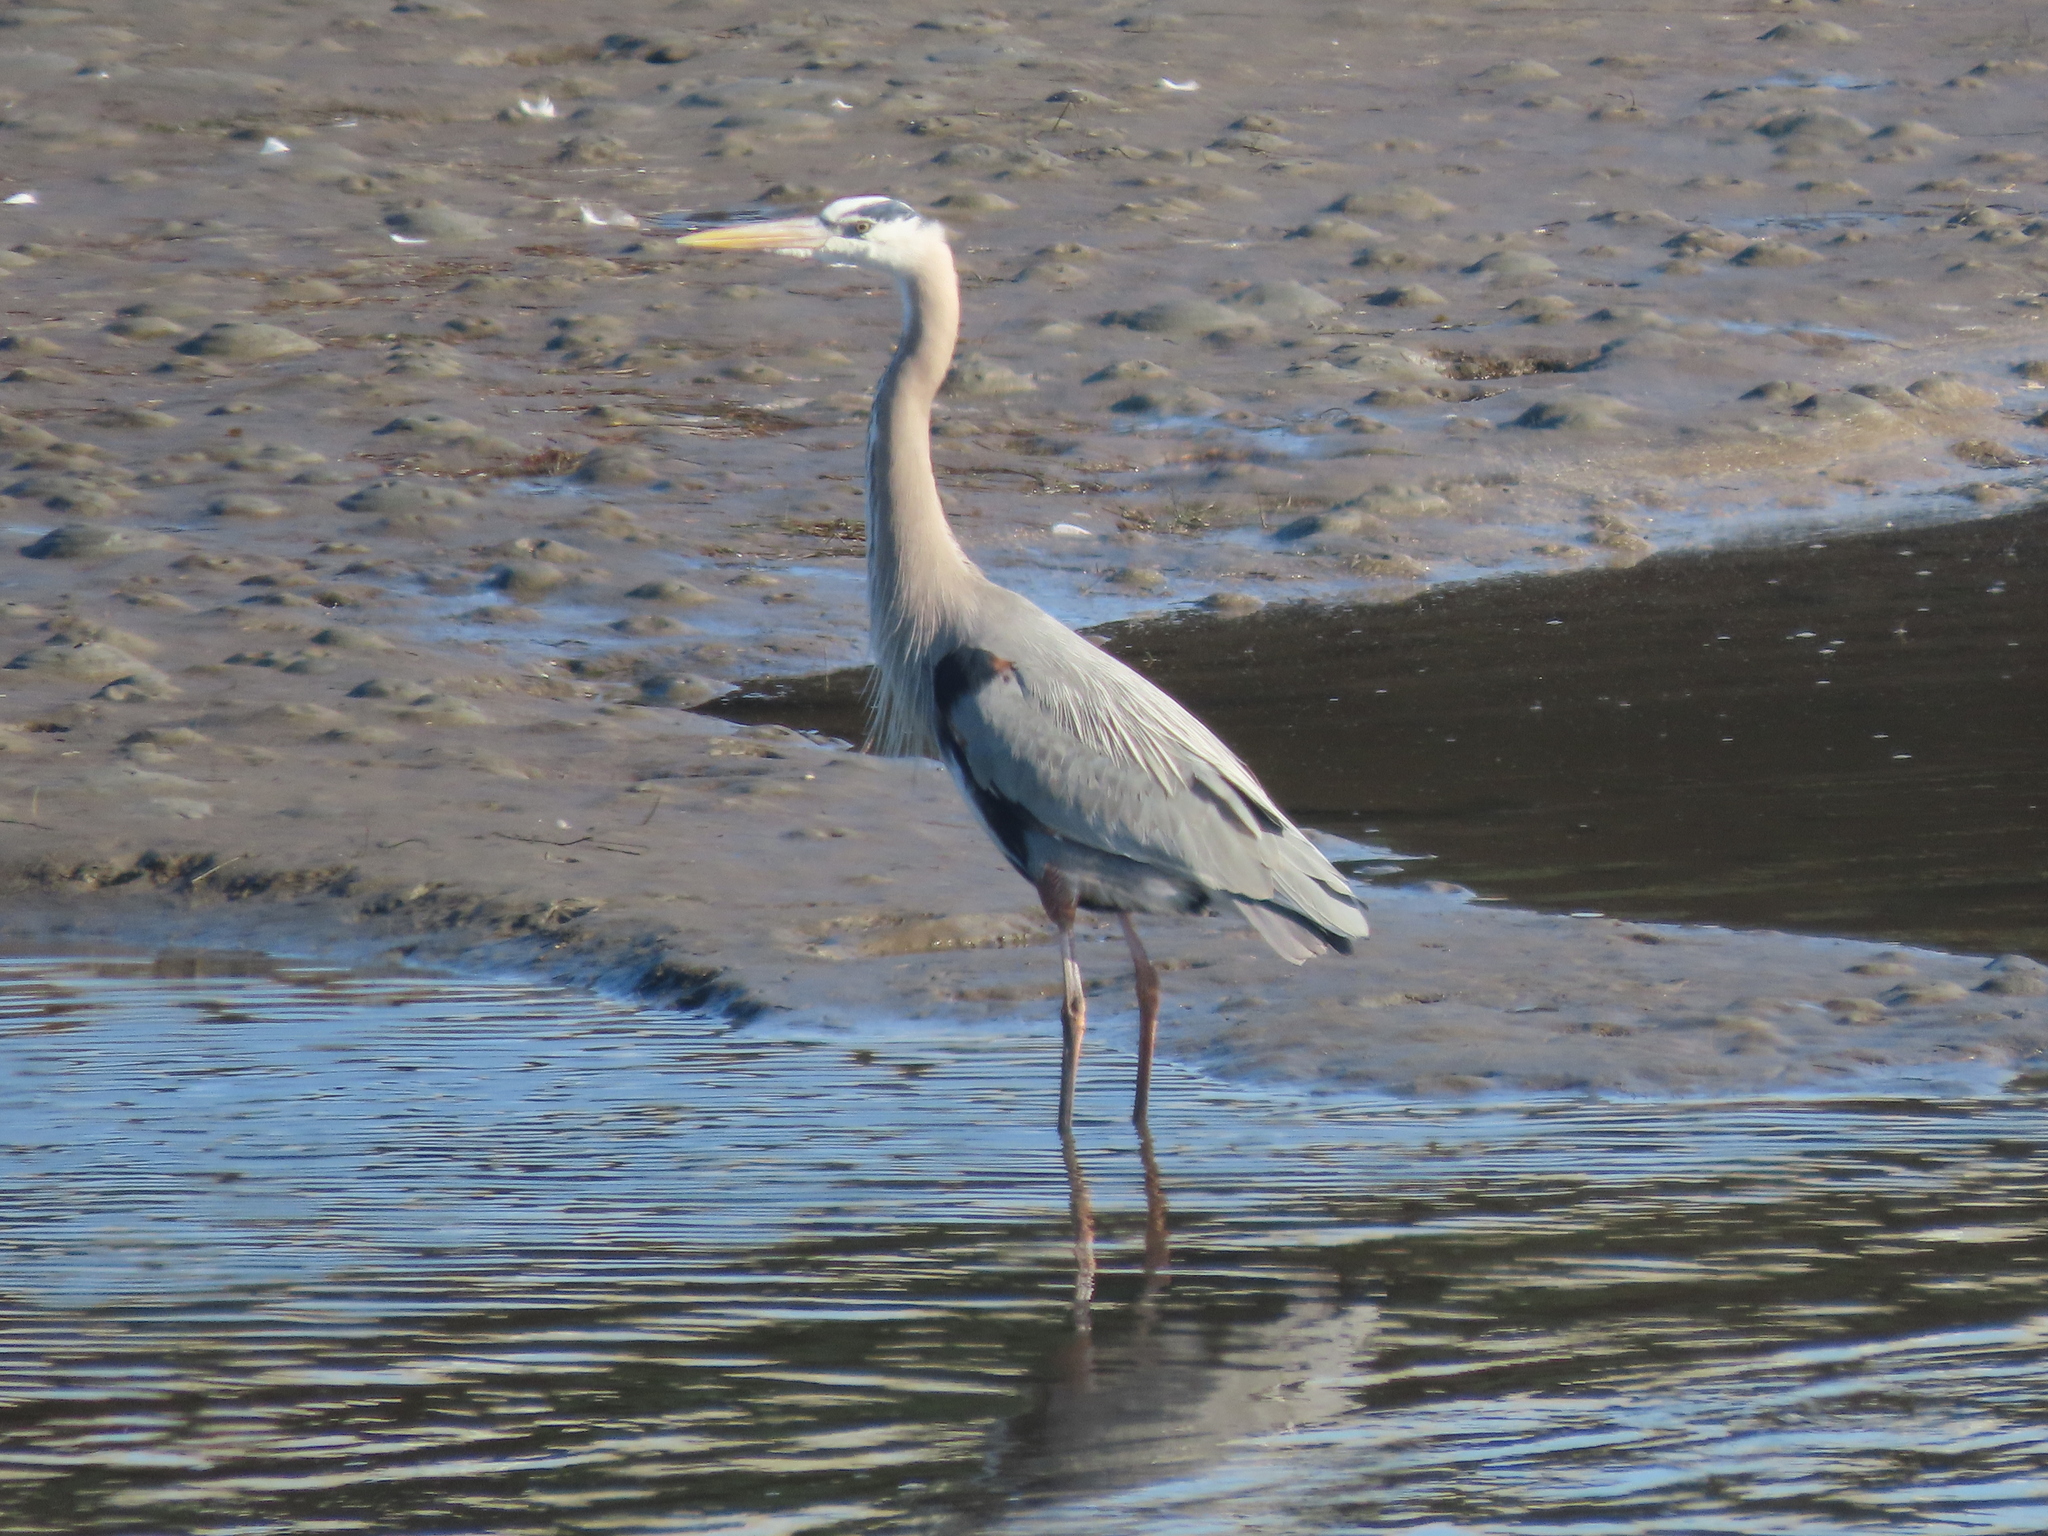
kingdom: Animalia
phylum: Chordata
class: Aves
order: Pelecaniformes
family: Ardeidae
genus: Ardea
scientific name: Ardea herodias
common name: Great blue heron
